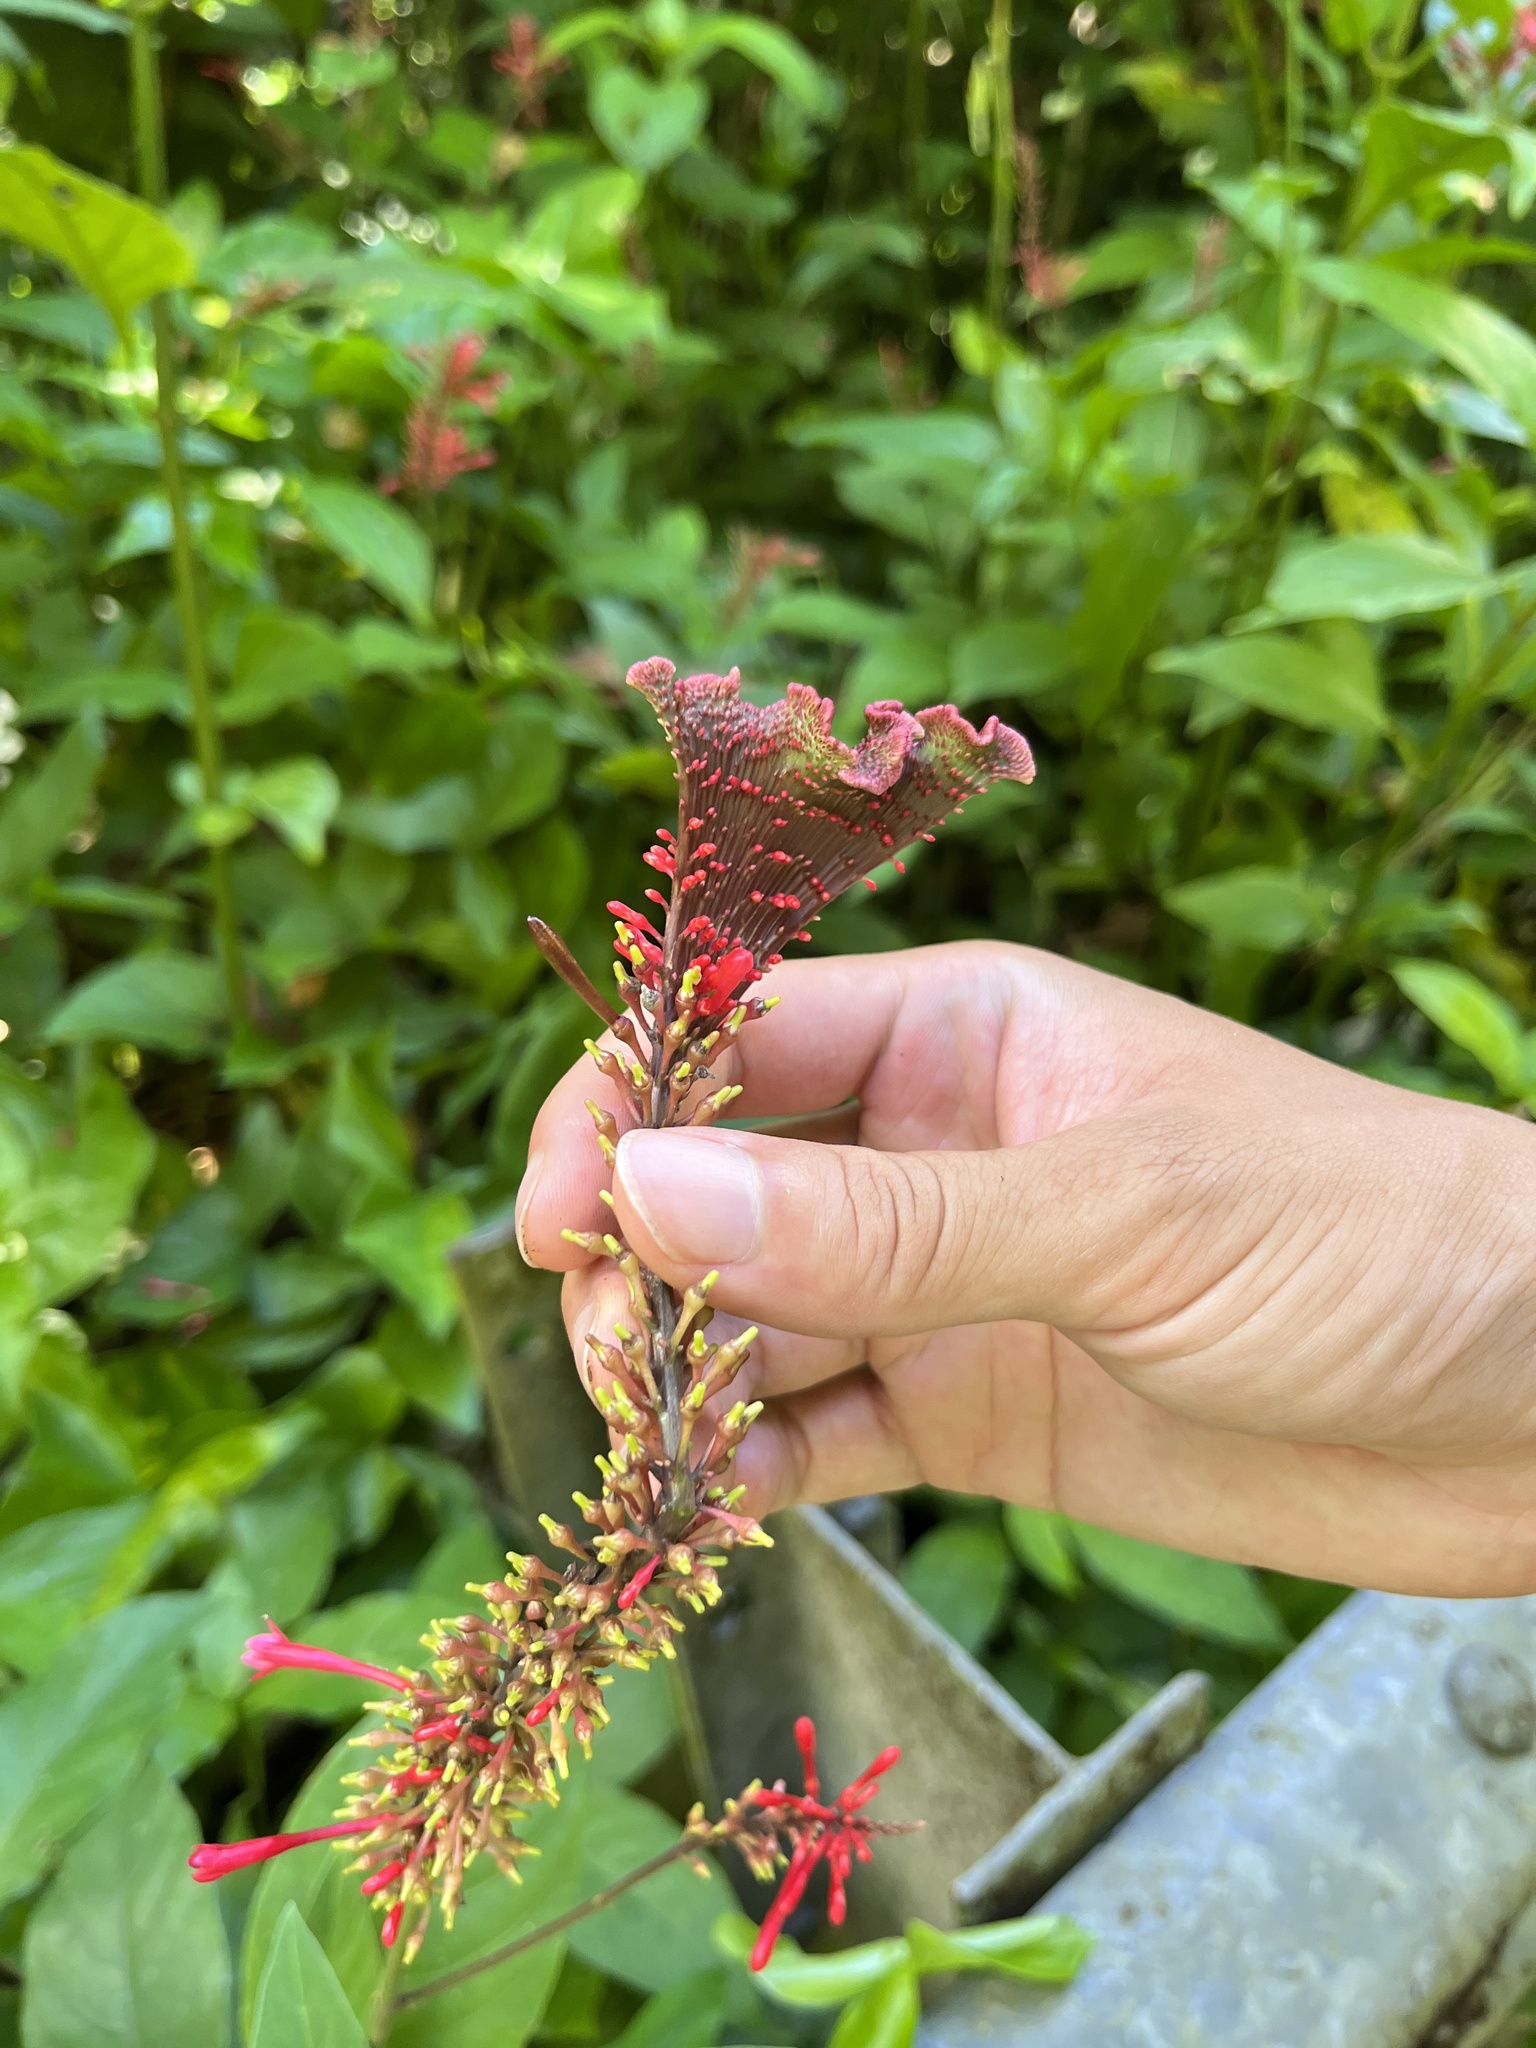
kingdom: Plantae
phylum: Tracheophyta
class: Magnoliopsida
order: Lamiales
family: Acanthaceae
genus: Odontonema
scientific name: Odontonema cuspidatum
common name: Mottled toothedthread
